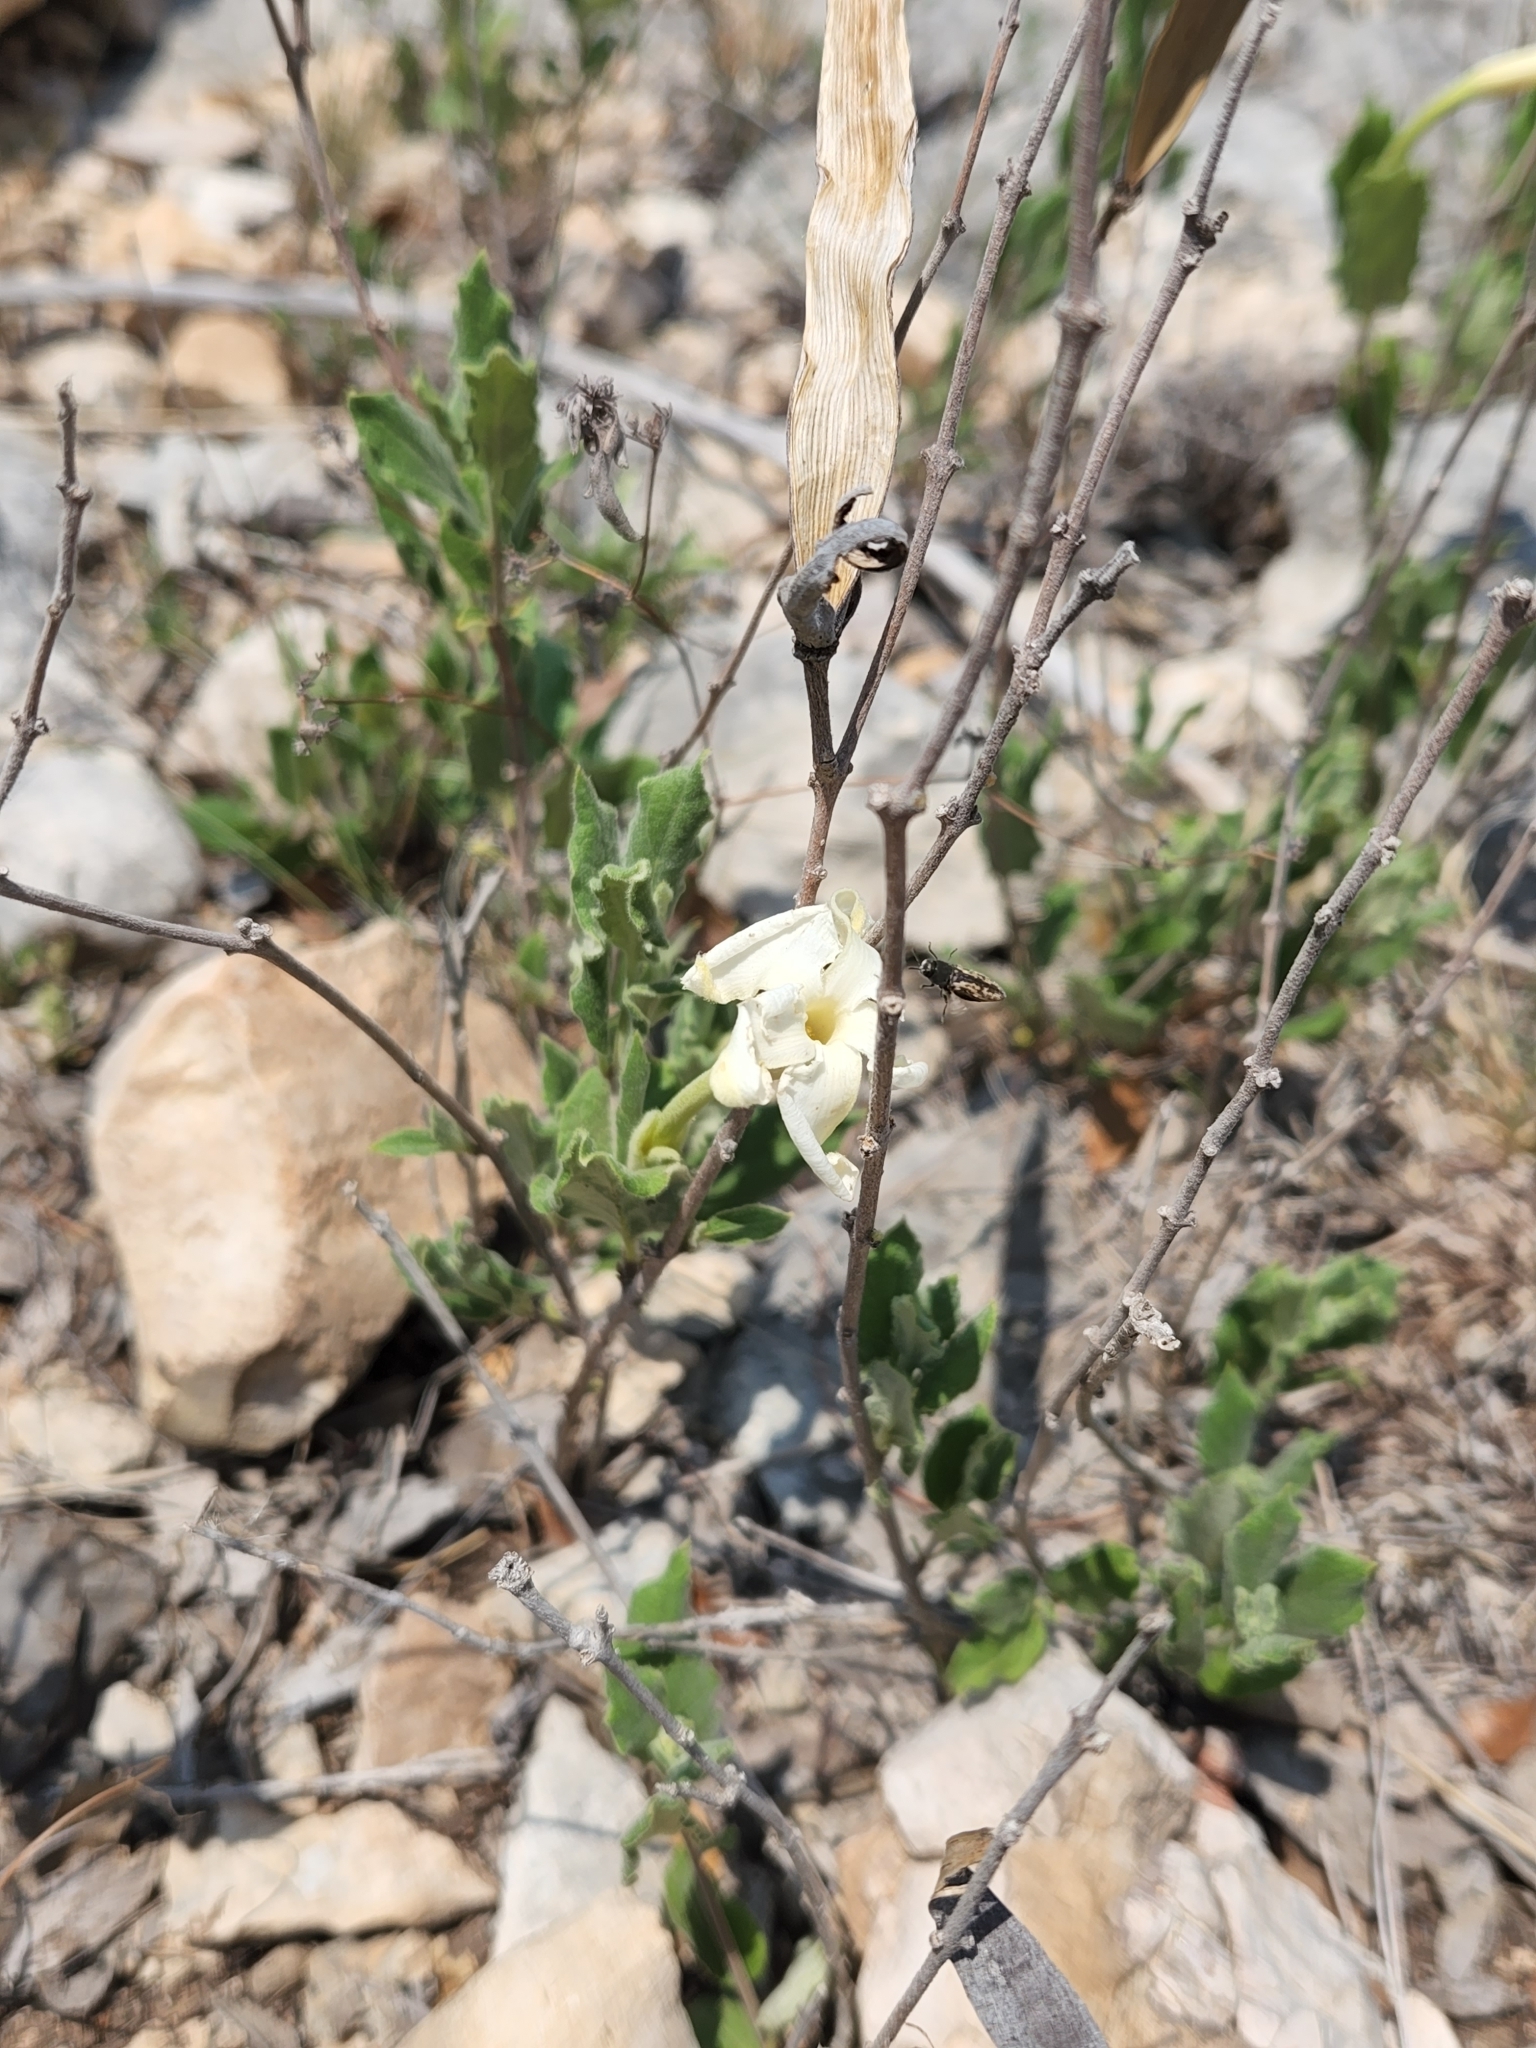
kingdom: Plantae
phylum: Tracheophyta
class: Magnoliopsida
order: Gentianales
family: Apocynaceae
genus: Mandevilla
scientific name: Mandevilla macrosiphon
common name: Plateau rocktrumpet
